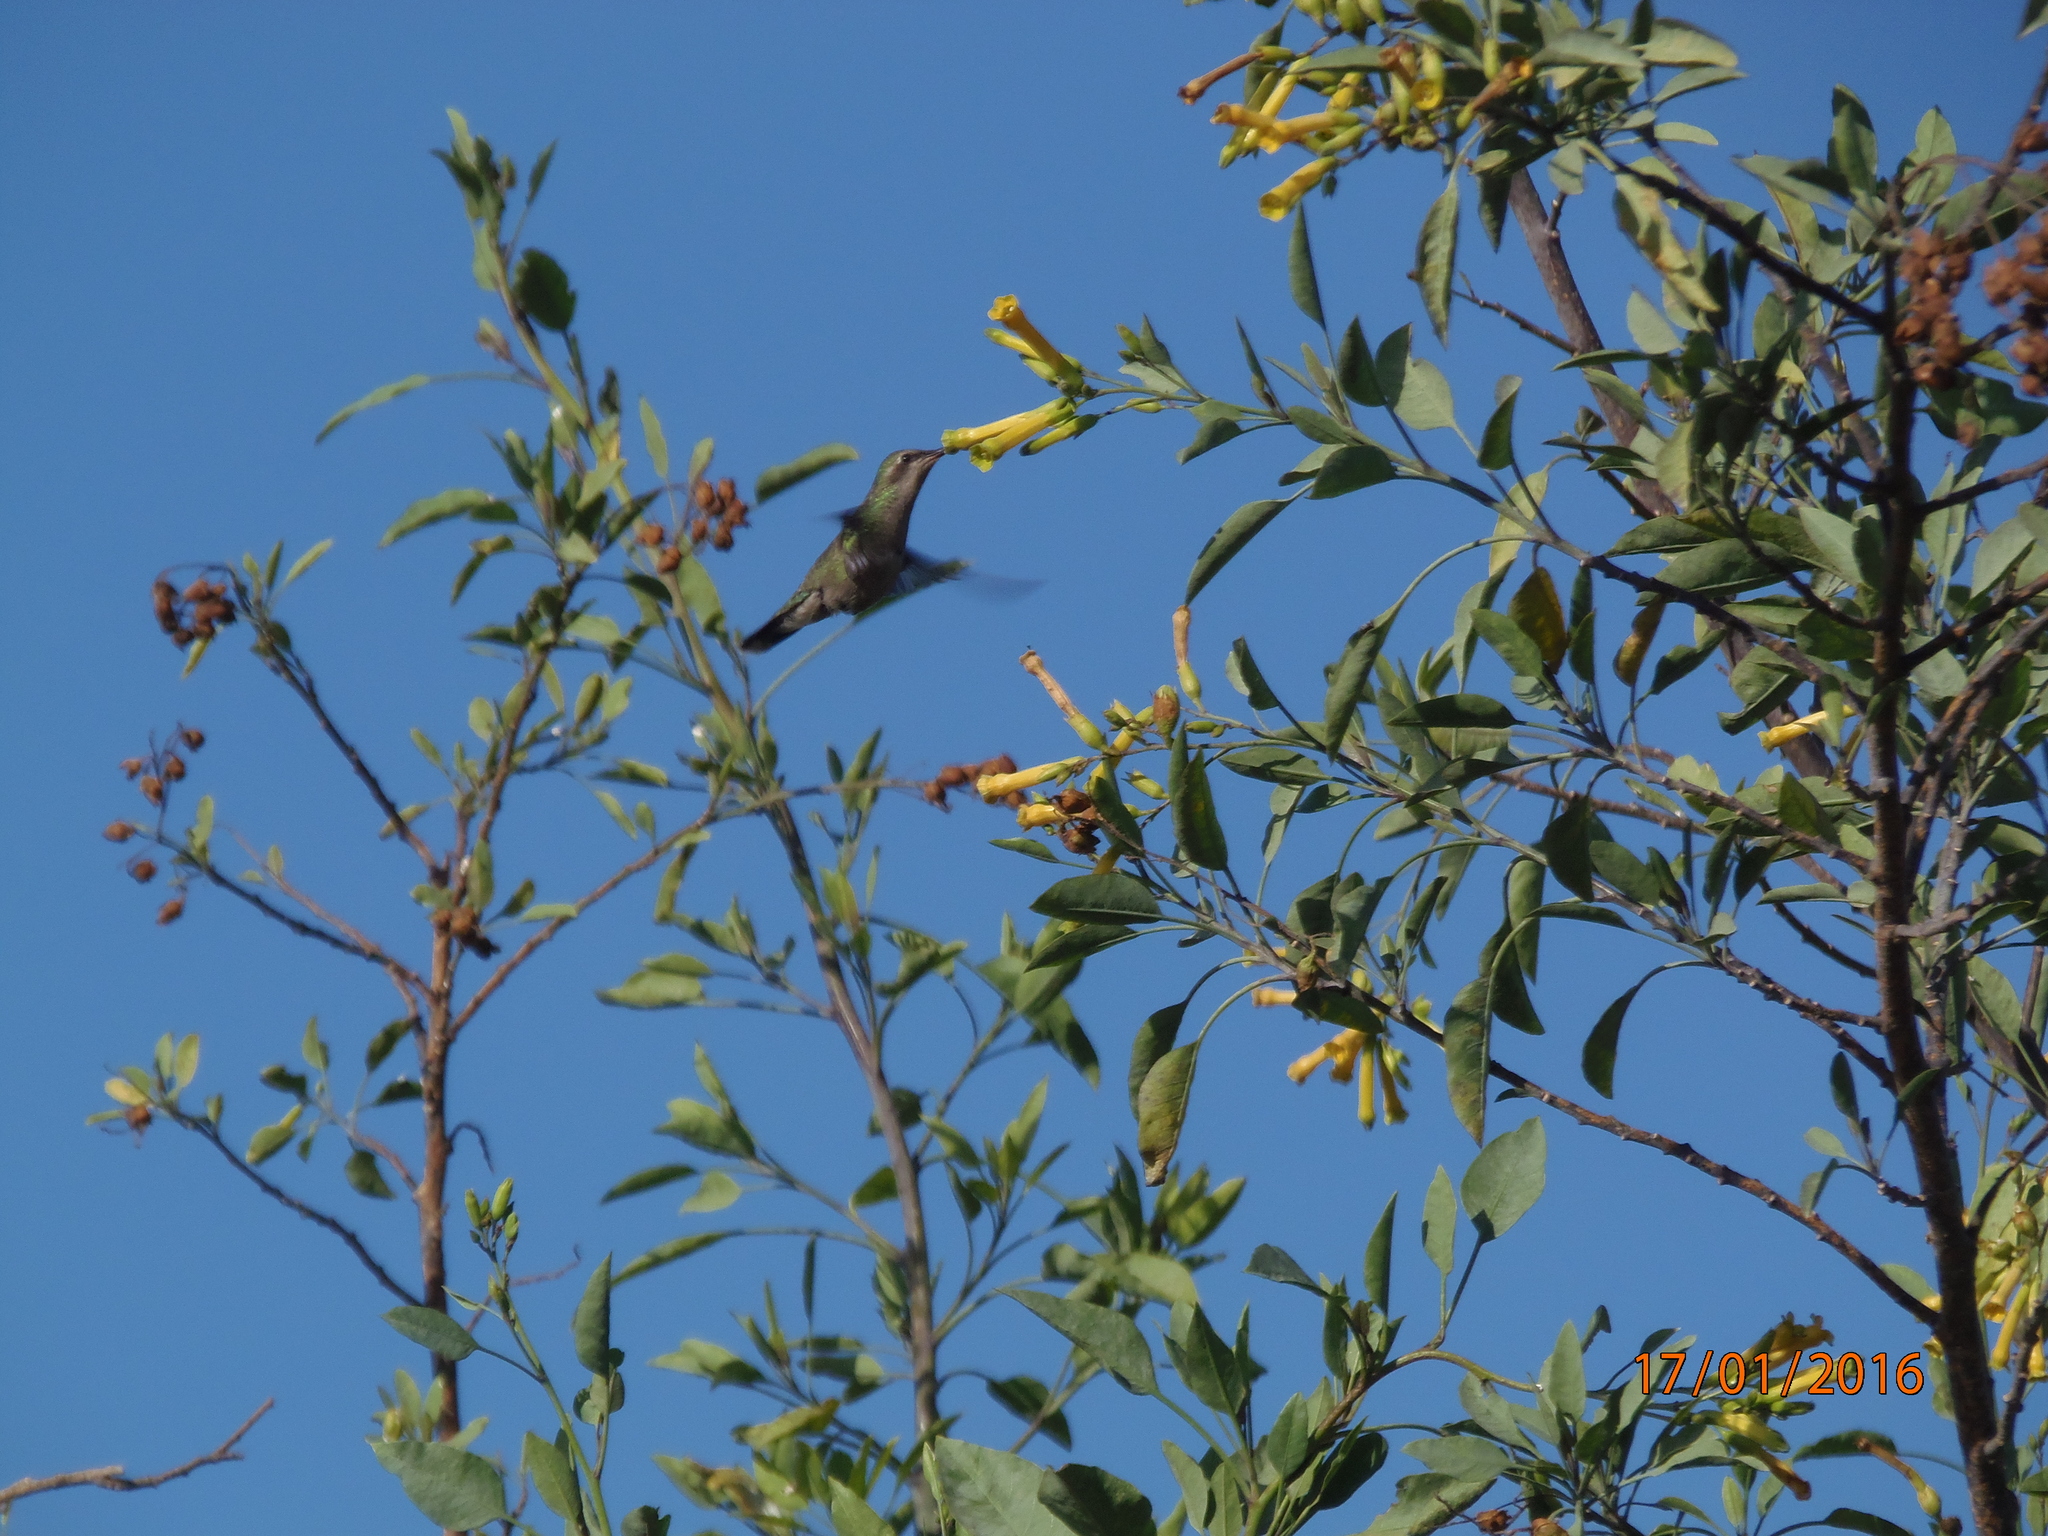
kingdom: Animalia
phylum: Chordata
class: Aves
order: Apodiformes
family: Trochilidae
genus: Cynanthus
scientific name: Cynanthus latirostris
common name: Broad-billed hummingbird
